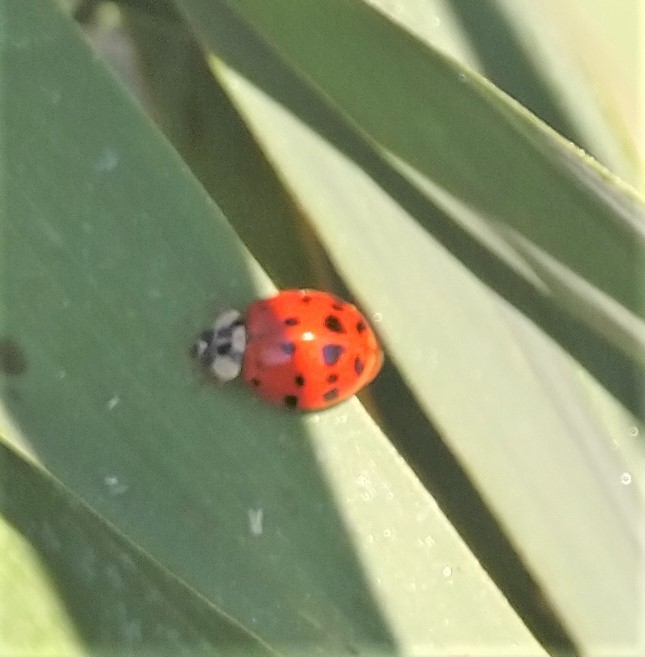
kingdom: Animalia
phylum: Arthropoda
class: Insecta
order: Coleoptera
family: Coccinellidae
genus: Harmonia
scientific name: Harmonia axyridis
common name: Harlequin ladybird
